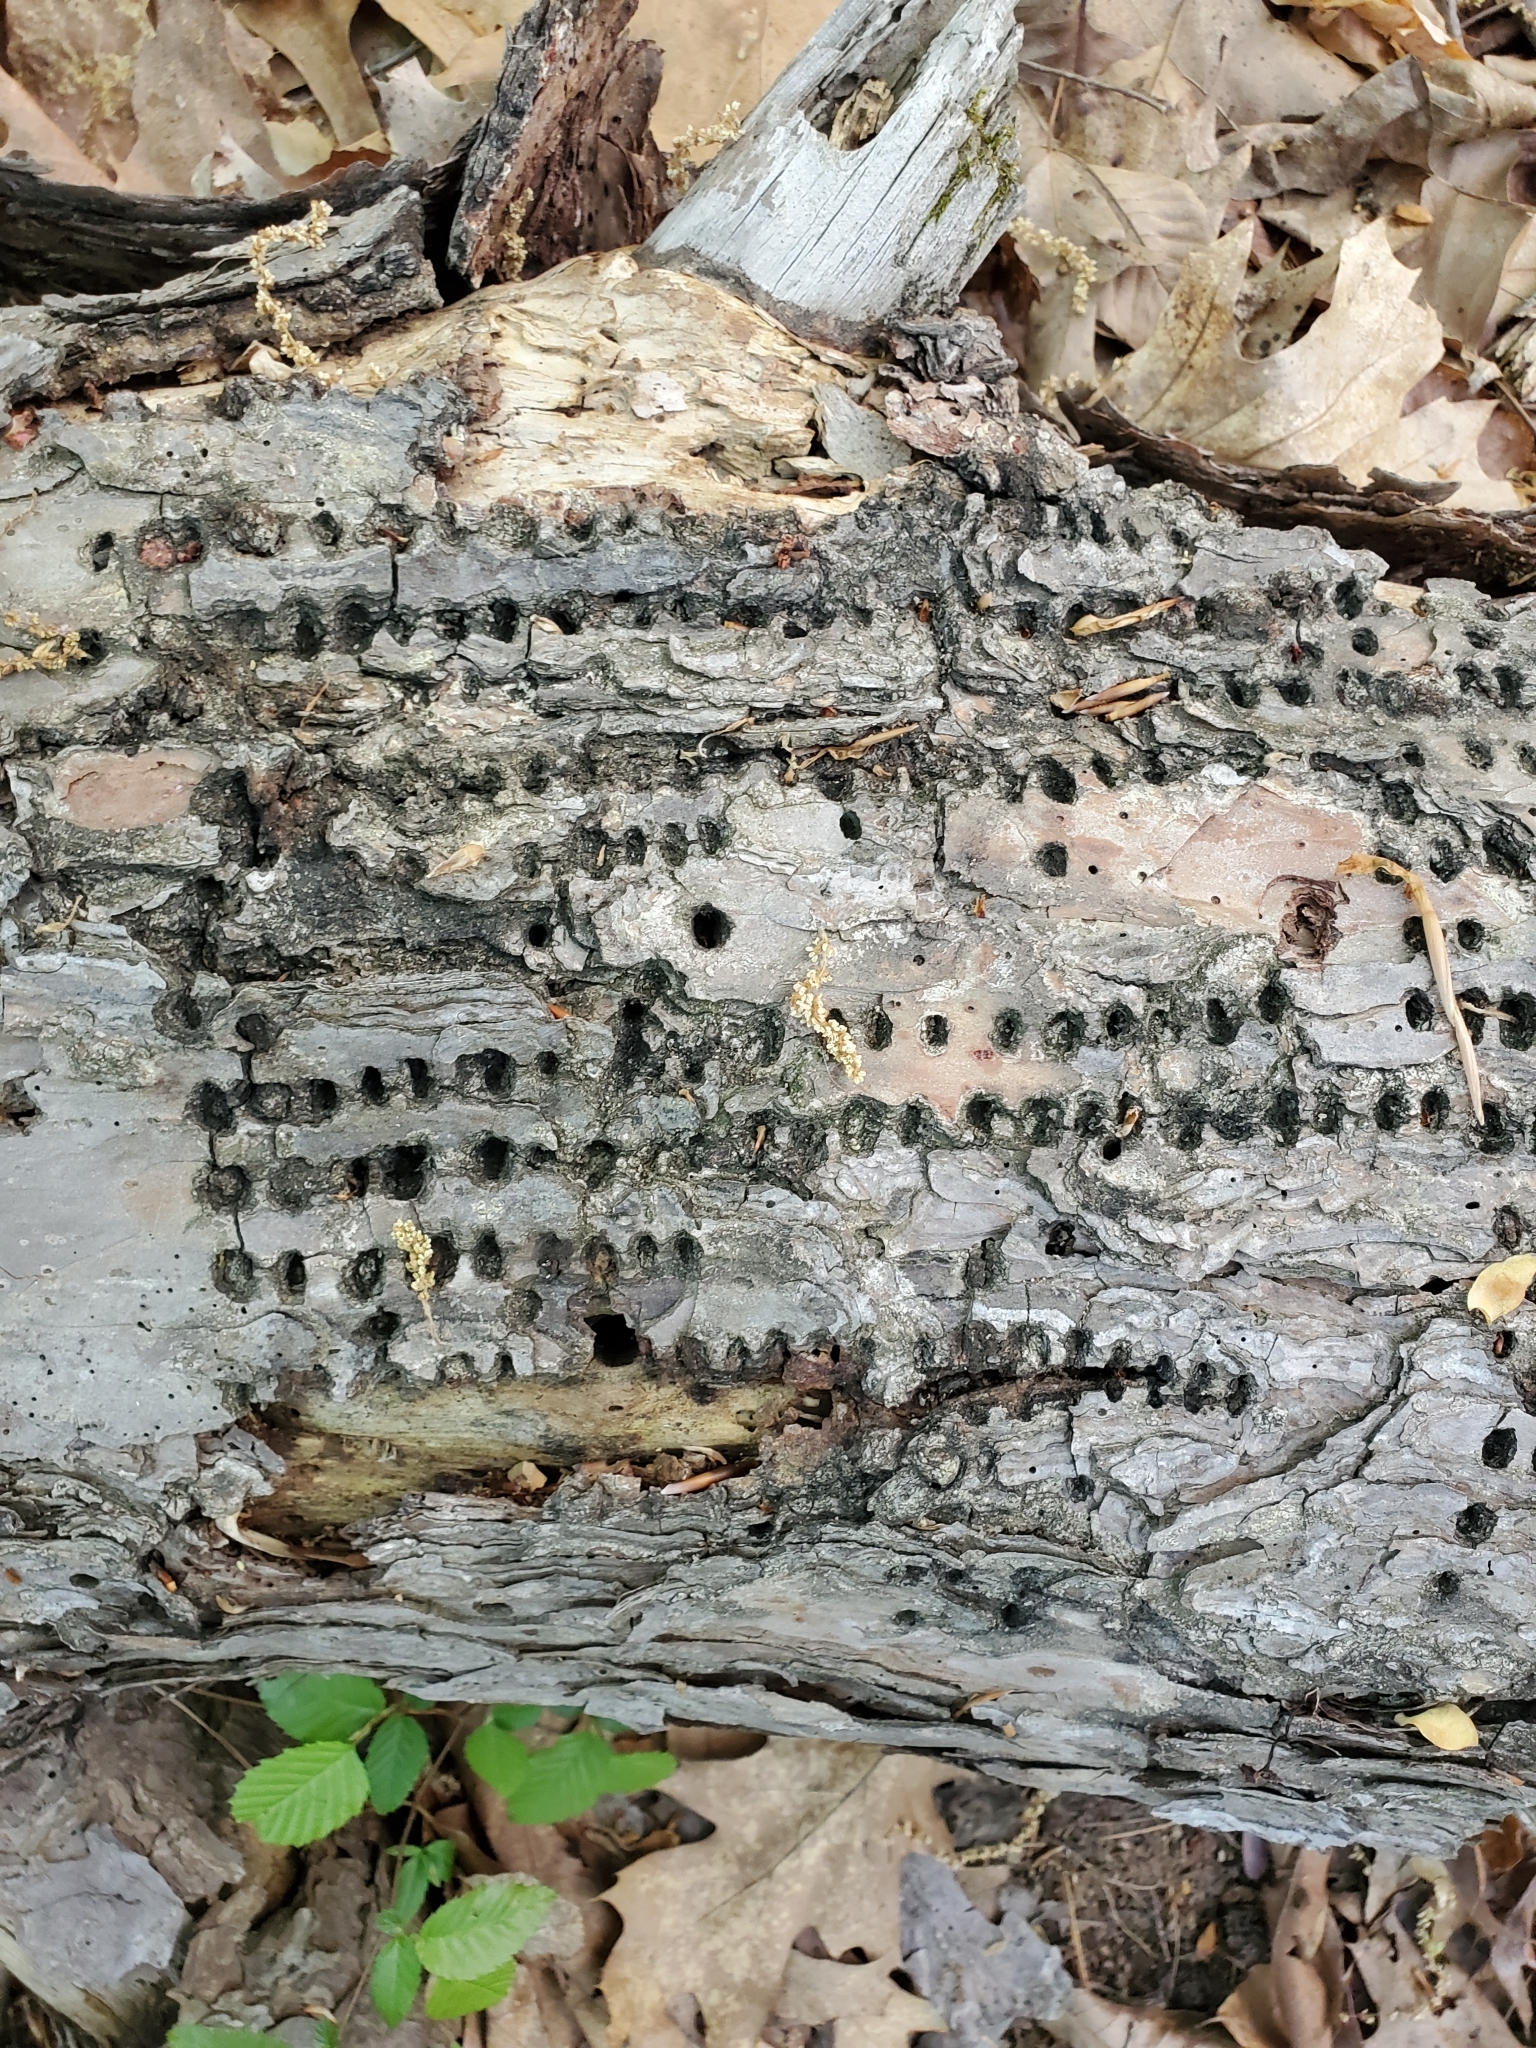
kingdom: Animalia
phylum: Chordata
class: Aves
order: Piciformes
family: Picidae
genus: Sphyrapicus
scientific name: Sphyrapicus varius
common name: Yellow-bellied sapsucker
